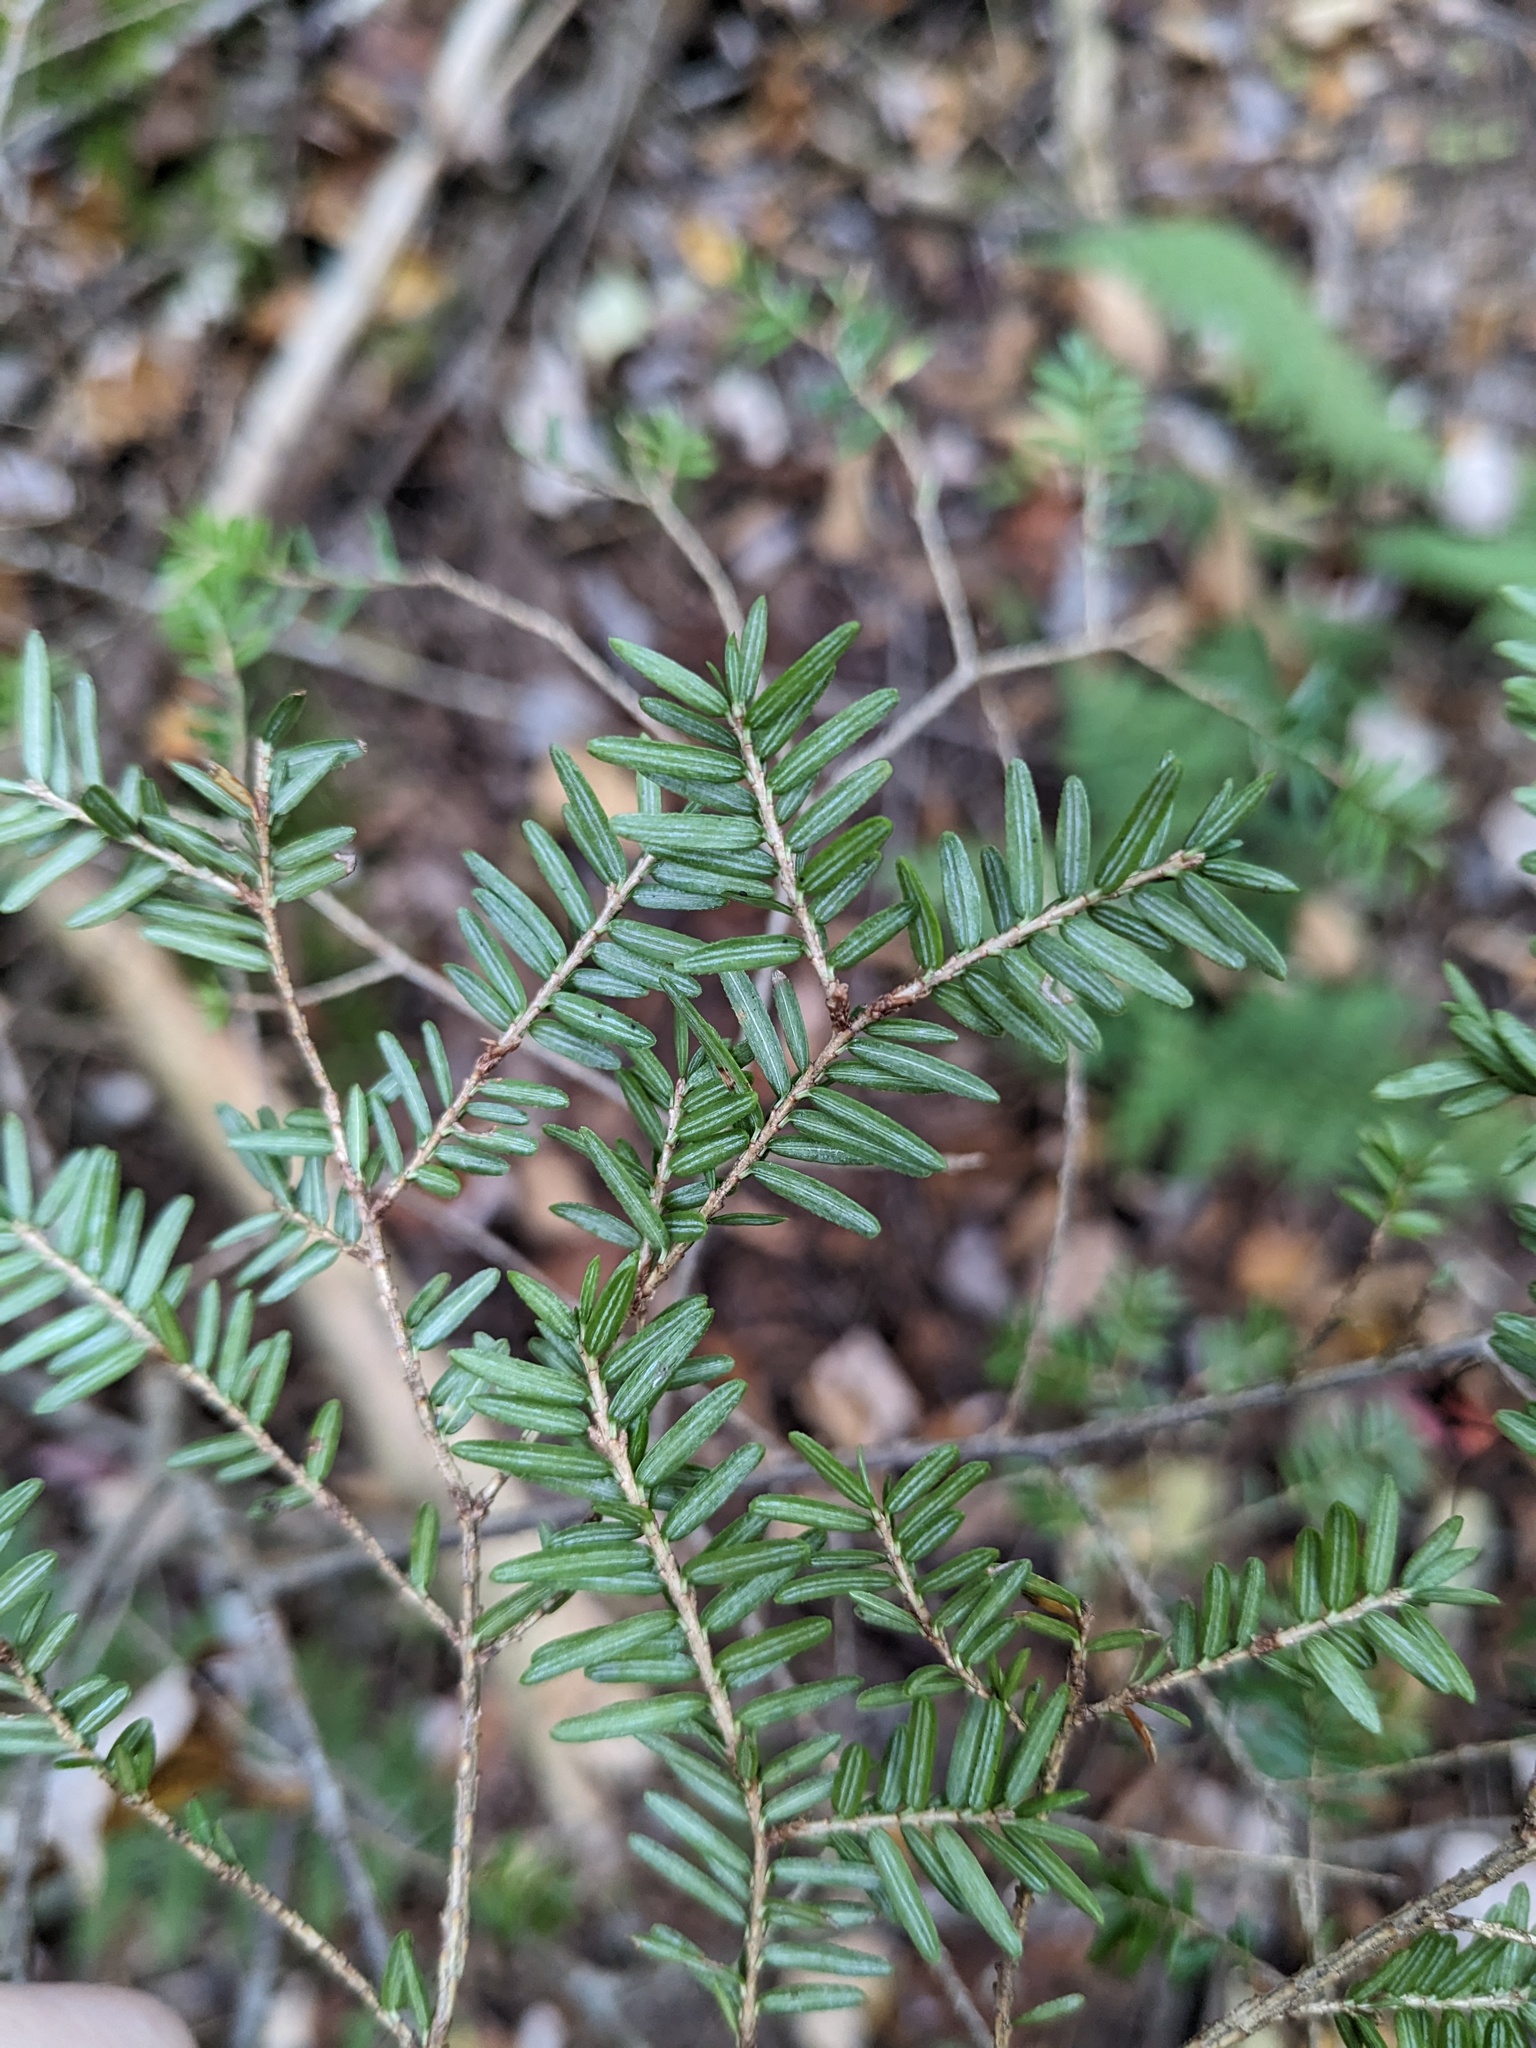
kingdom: Plantae
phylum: Tracheophyta
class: Pinopsida
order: Pinales
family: Pinaceae
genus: Tsuga
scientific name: Tsuga canadensis
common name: Eastern hemlock
